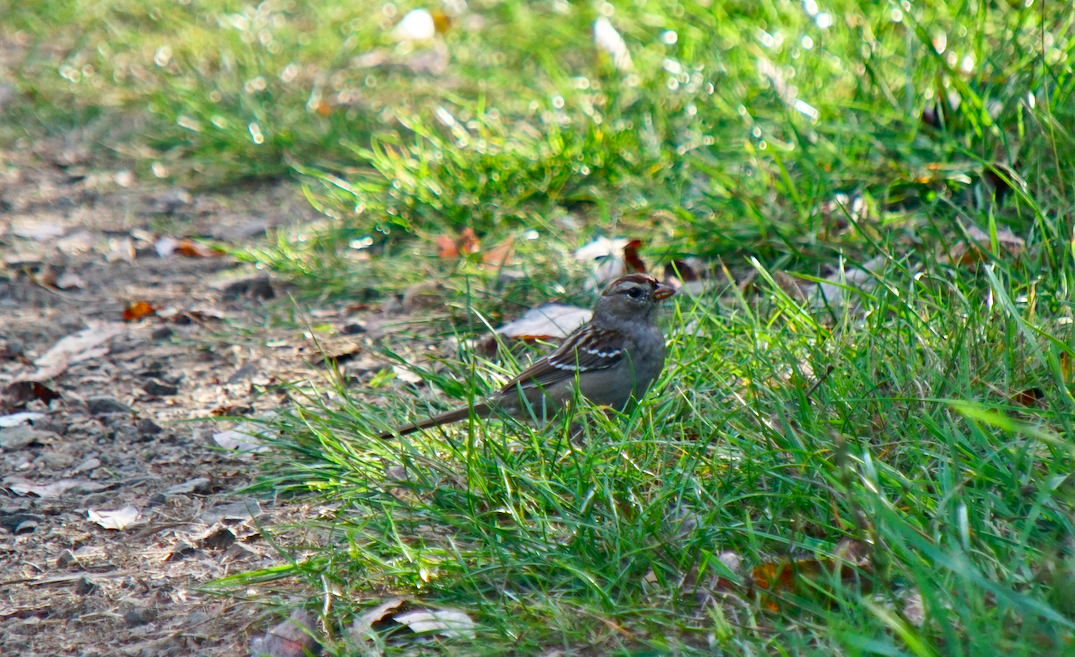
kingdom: Animalia
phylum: Chordata
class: Aves
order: Passeriformes
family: Passerellidae
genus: Zonotrichia
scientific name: Zonotrichia leucophrys
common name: White-crowned sparrow
